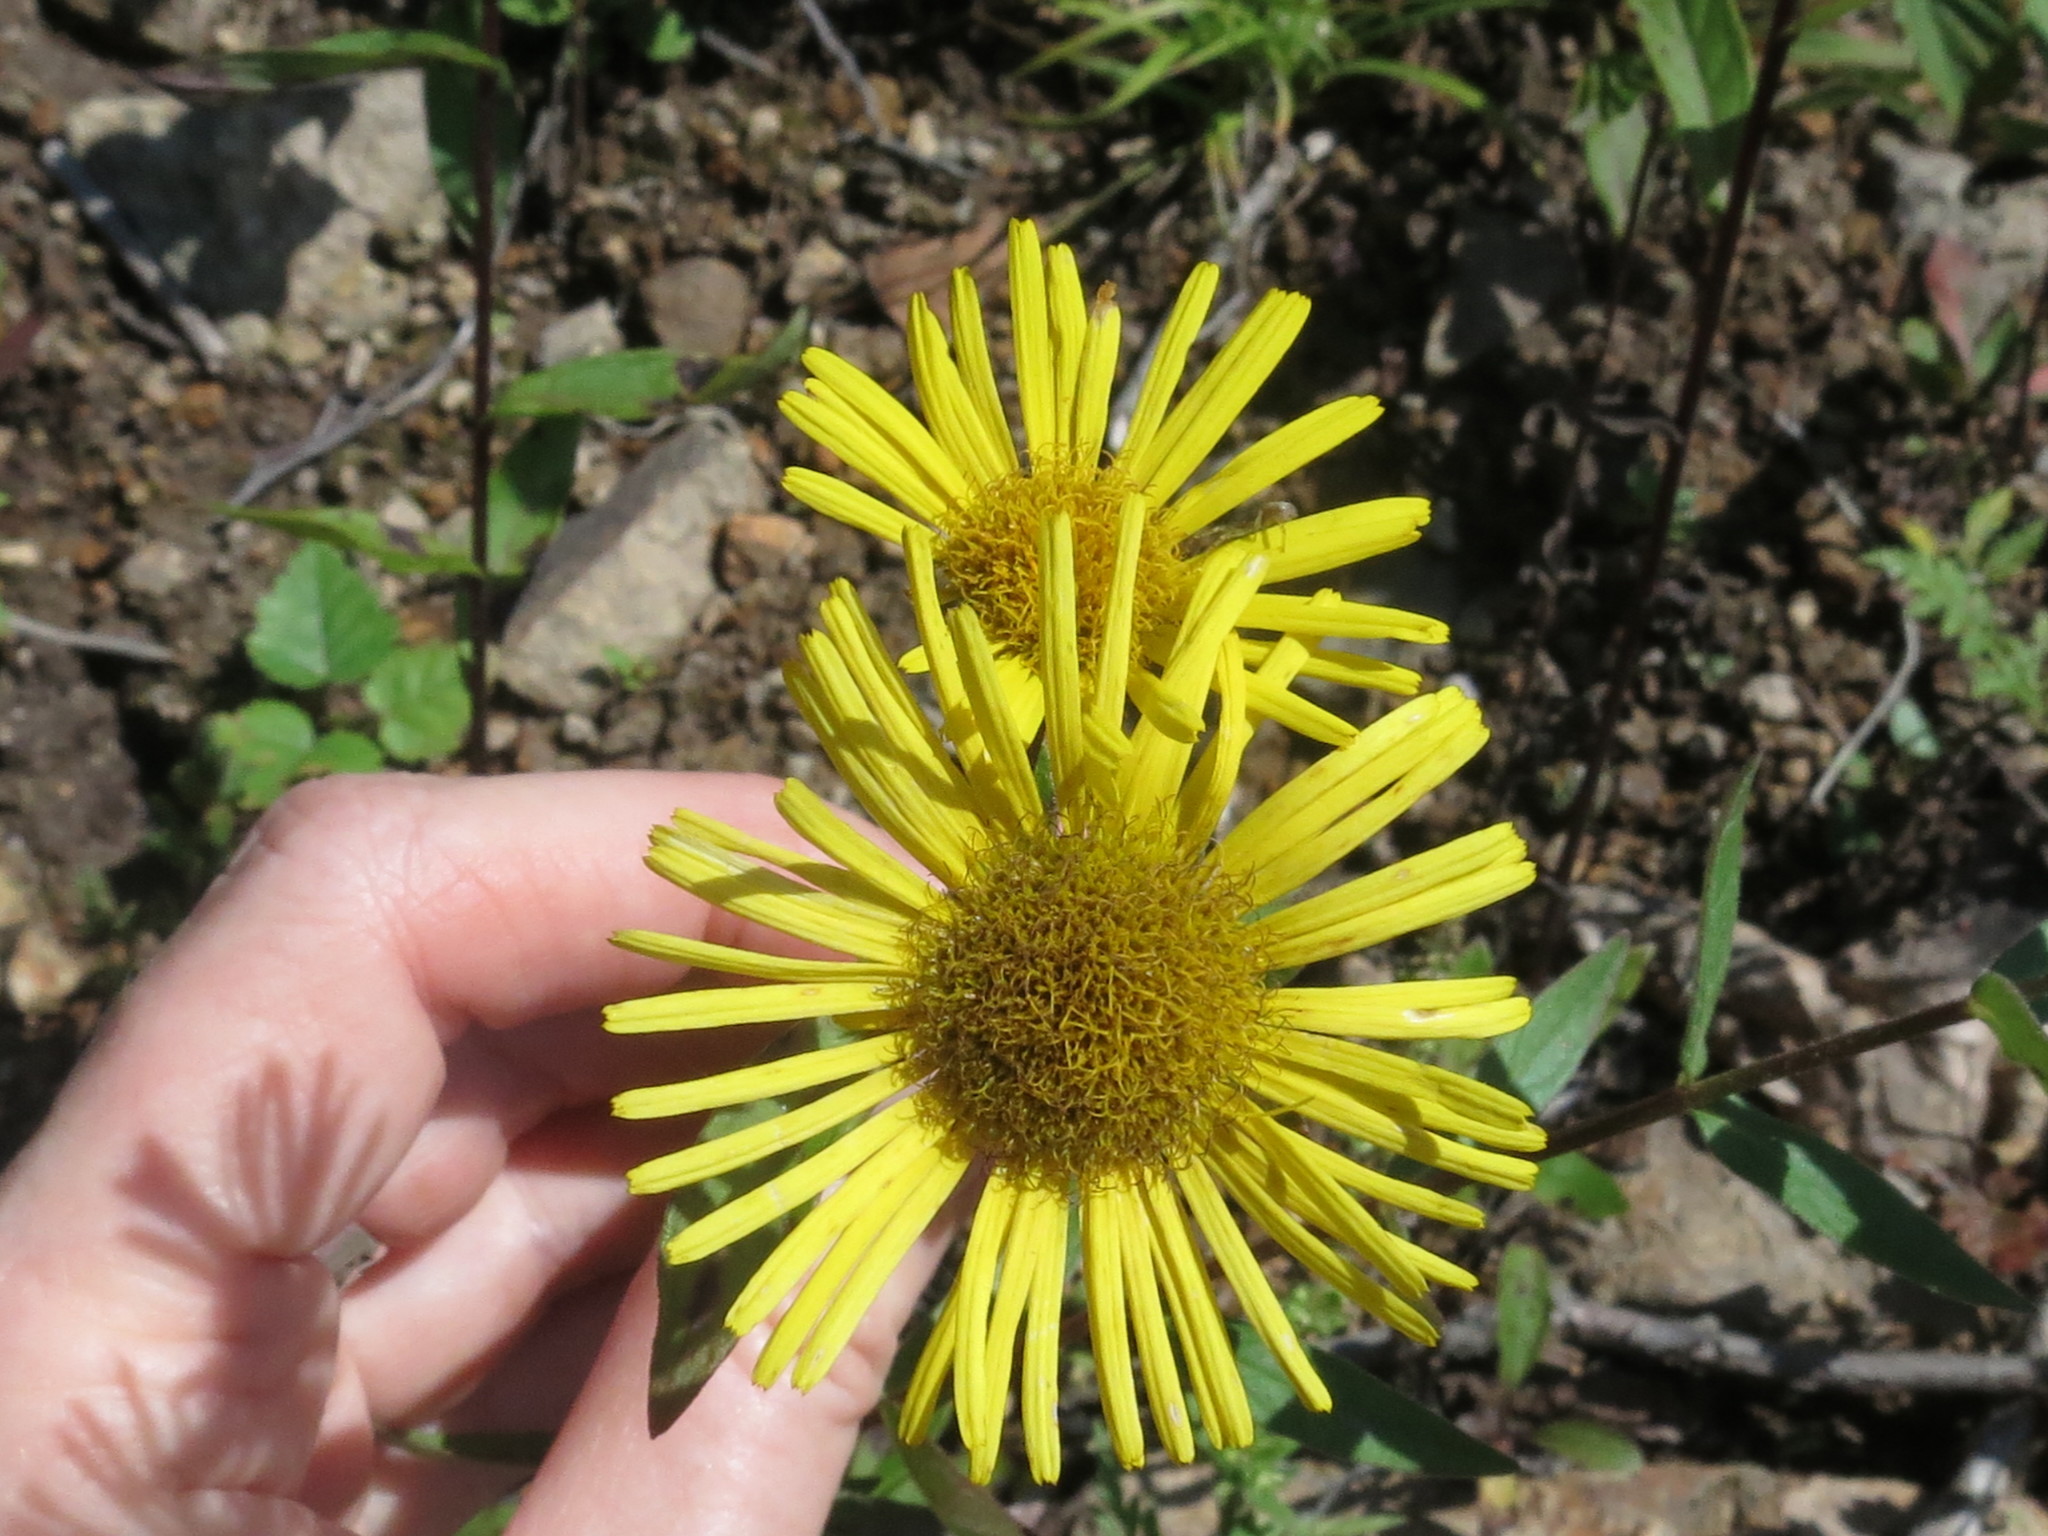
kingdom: Plantae
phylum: Tracheophyta
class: Magnoliopsida
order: Asterales
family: Asteraceae
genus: Inula
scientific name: Inula japonica
